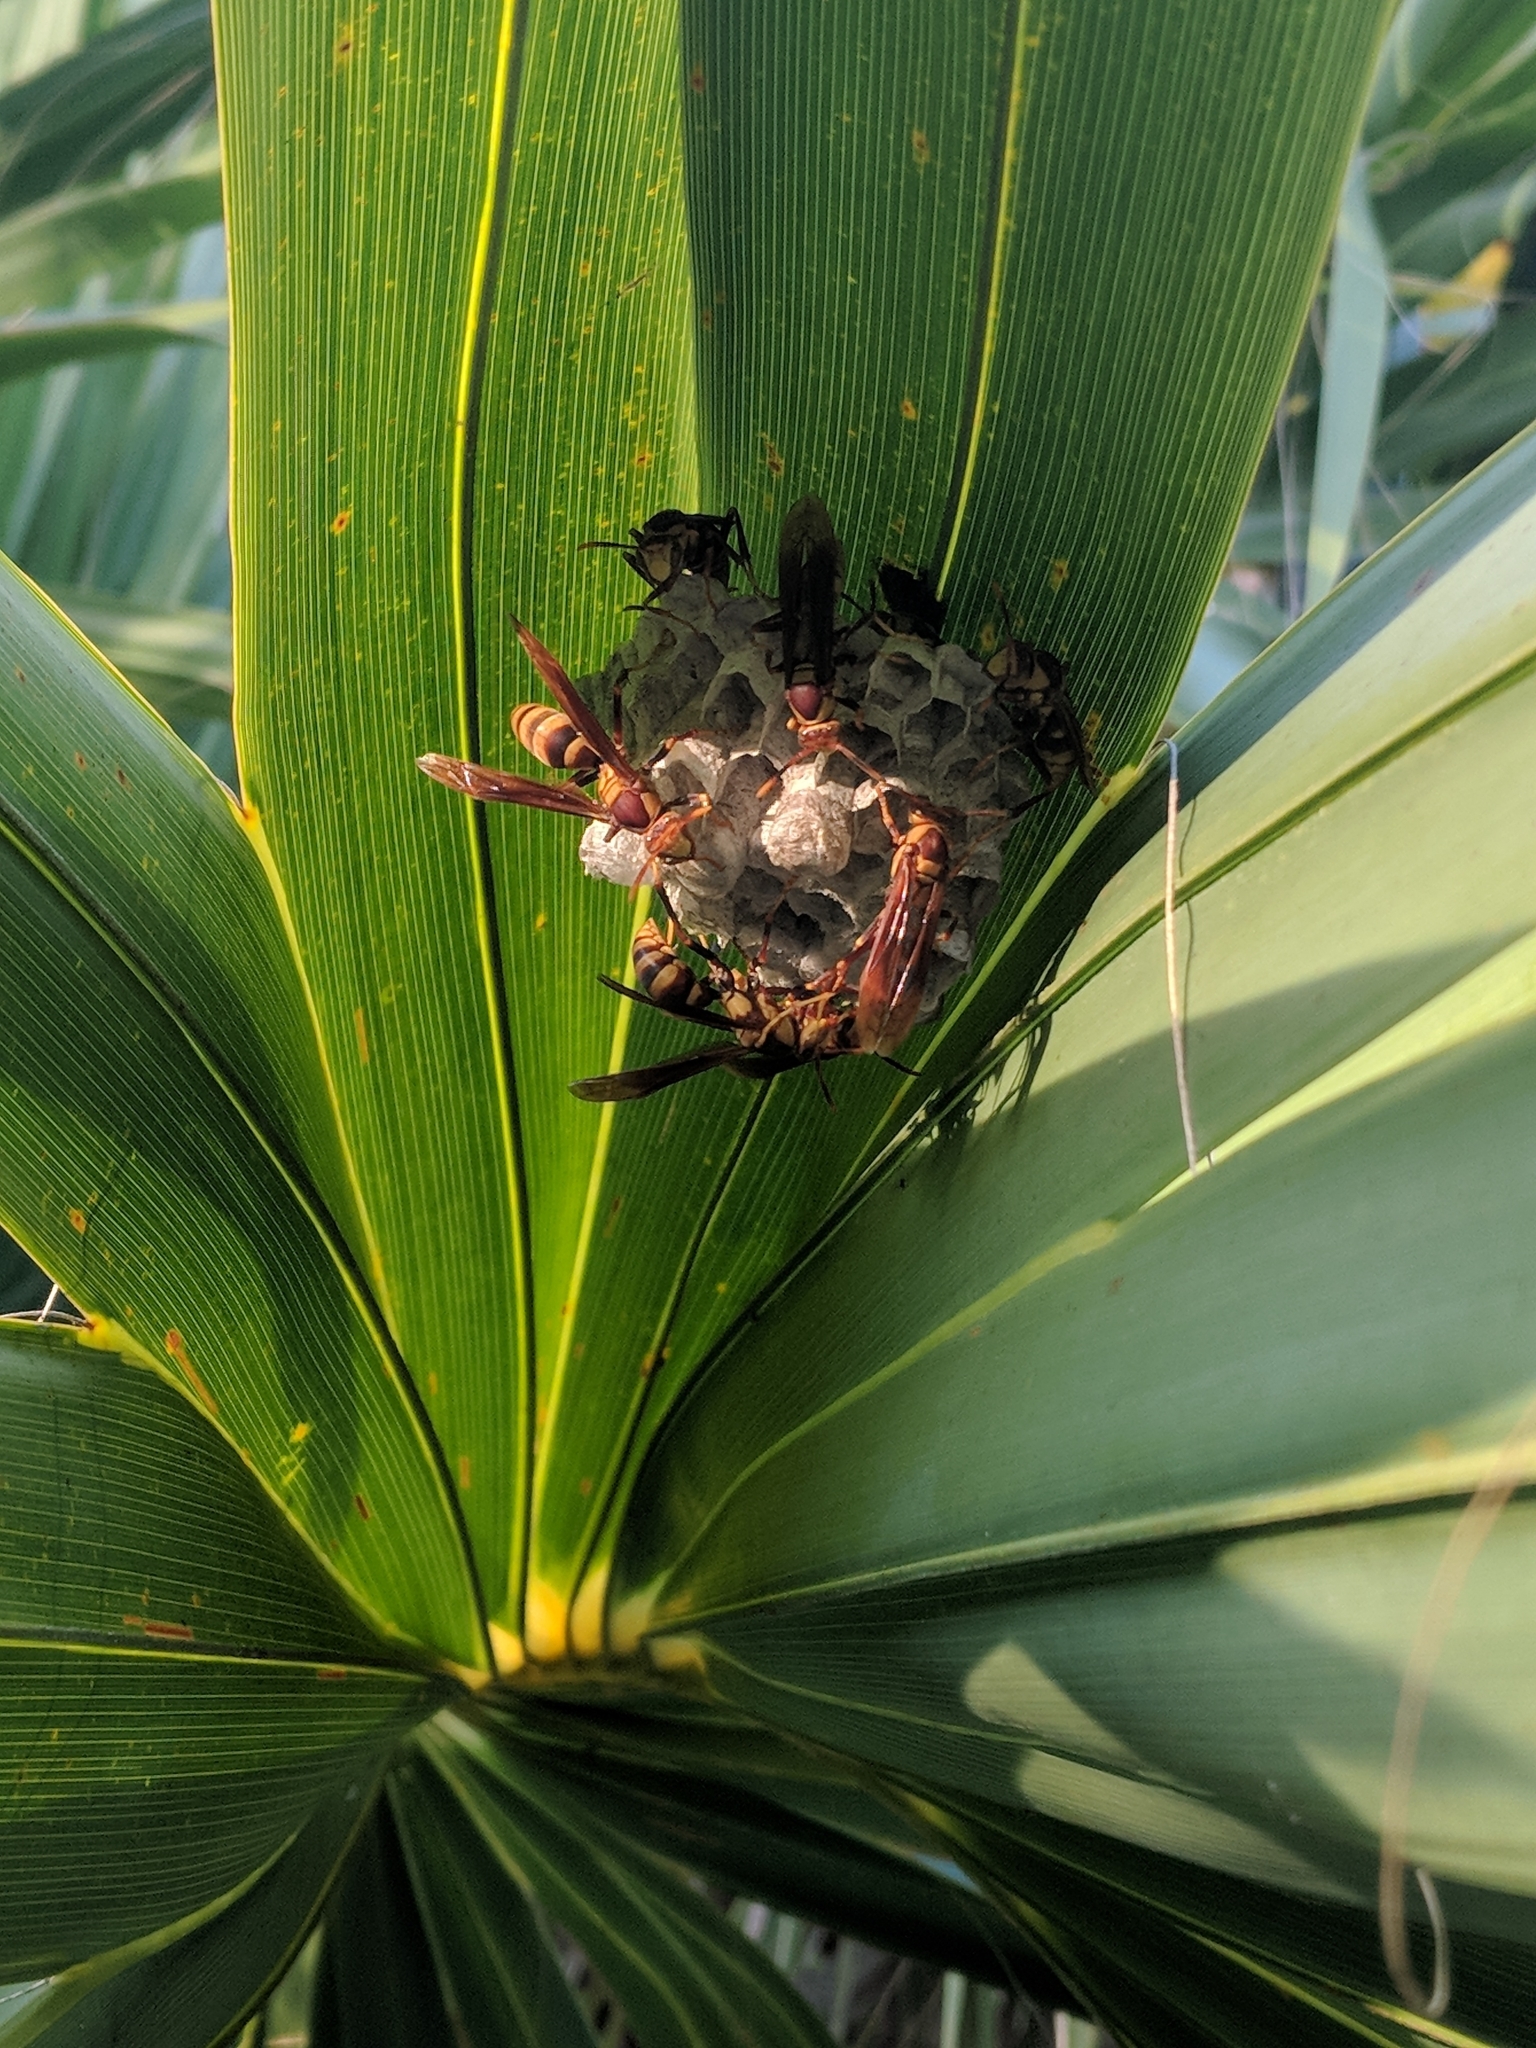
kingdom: Animalia
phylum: Arthropoda
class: Insecta
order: Hymenoptera
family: Eumenidae
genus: Polistes
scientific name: Polistes major
